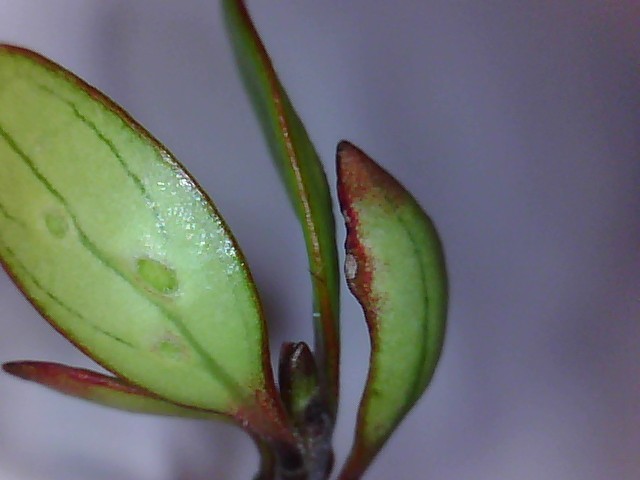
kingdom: Plantae
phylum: Tracheophyta
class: Magnoliopsida
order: Gentianales
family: Rubiaceae
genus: Coprosma
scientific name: Coprosma propinqua
